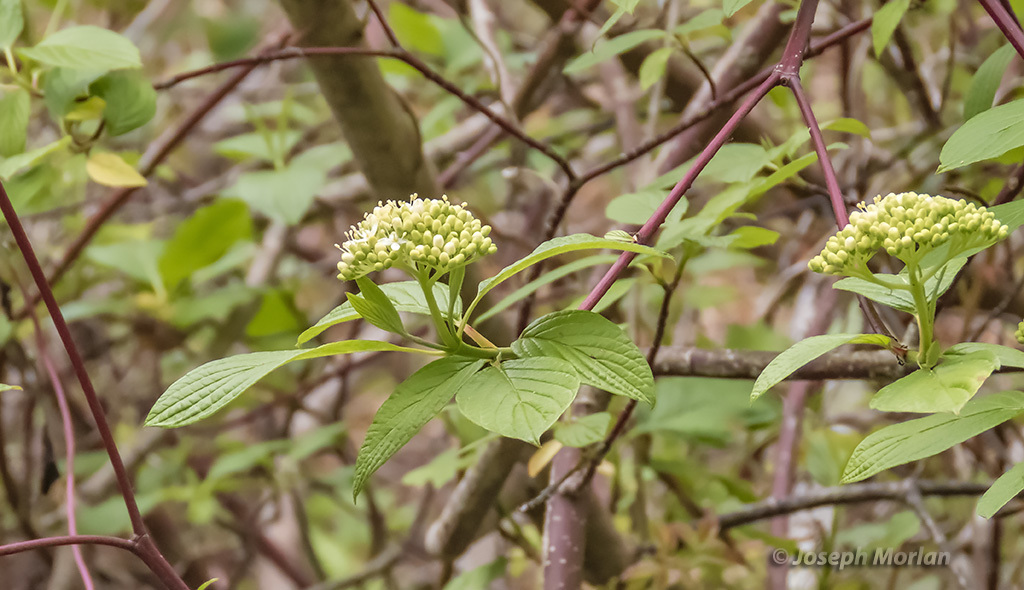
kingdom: Plantae
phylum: Tracheophyta
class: Magnoliopsida
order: Cornales
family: Cornaceae
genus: Cornus
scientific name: Cornus sericea
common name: Red-osier dogwood
